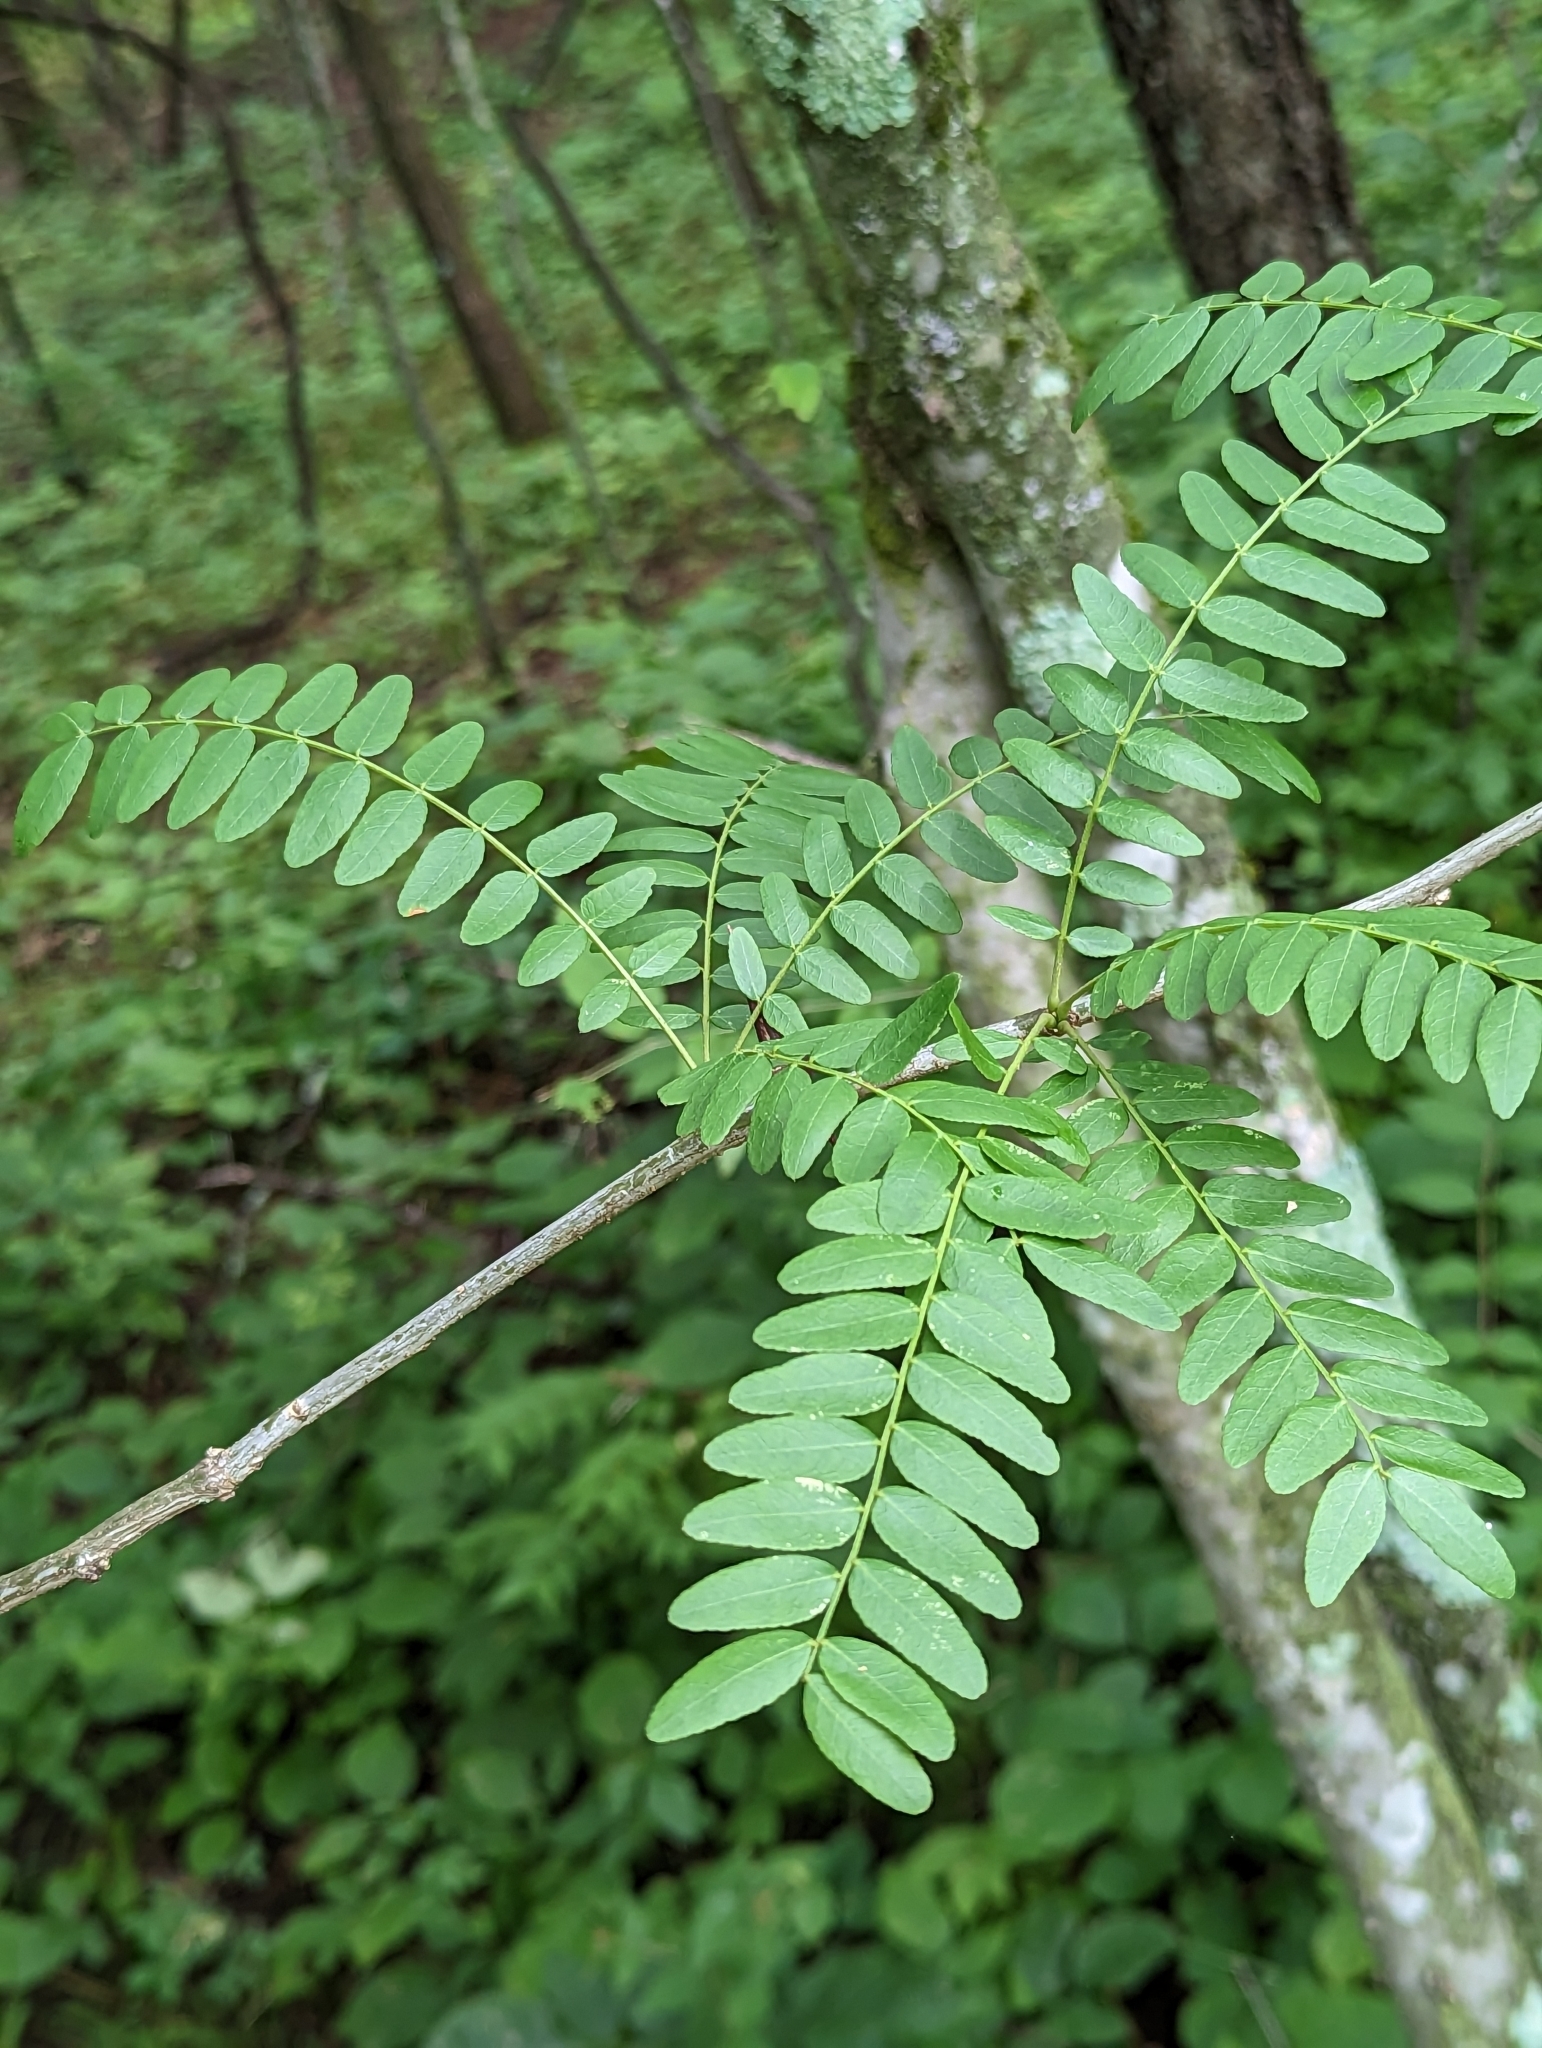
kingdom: Plantae
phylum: Tracheophyta
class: Magnoliopsida
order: Fabales
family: Fabaceae
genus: Gleditsia
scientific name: Gleditsia triacanthos
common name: Common honeylocust
